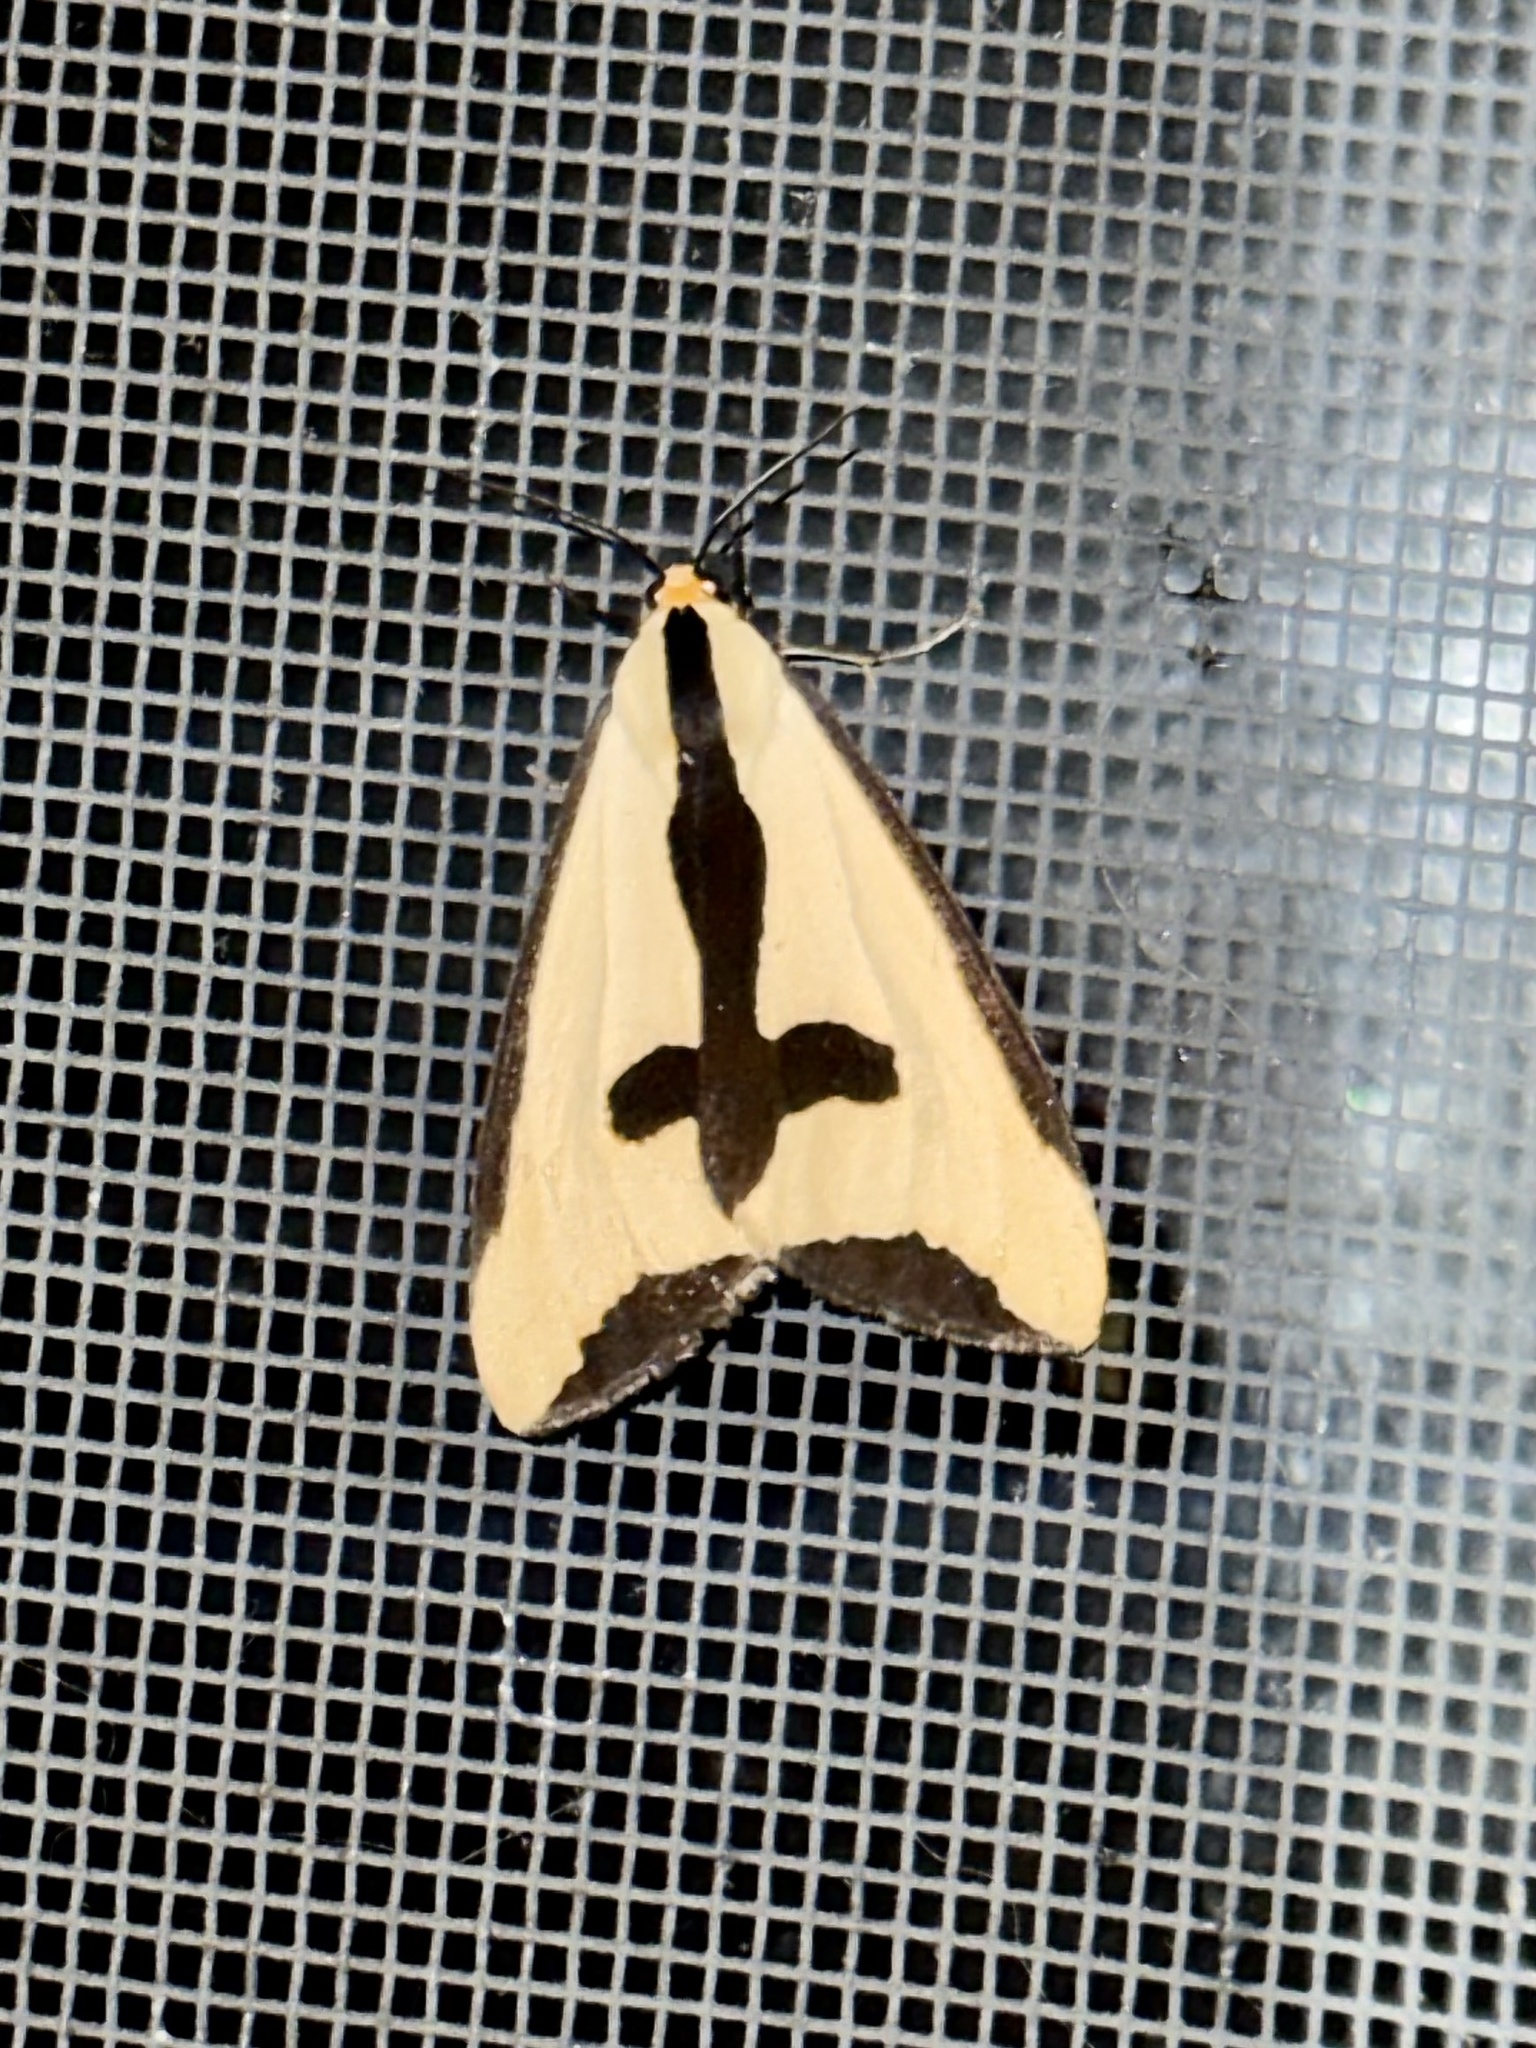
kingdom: Animalia
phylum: Arthropoda
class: Insecta
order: Lepidoptera
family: Erebidae
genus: Haploa
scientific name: Haploa clymene
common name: Clymene moth
